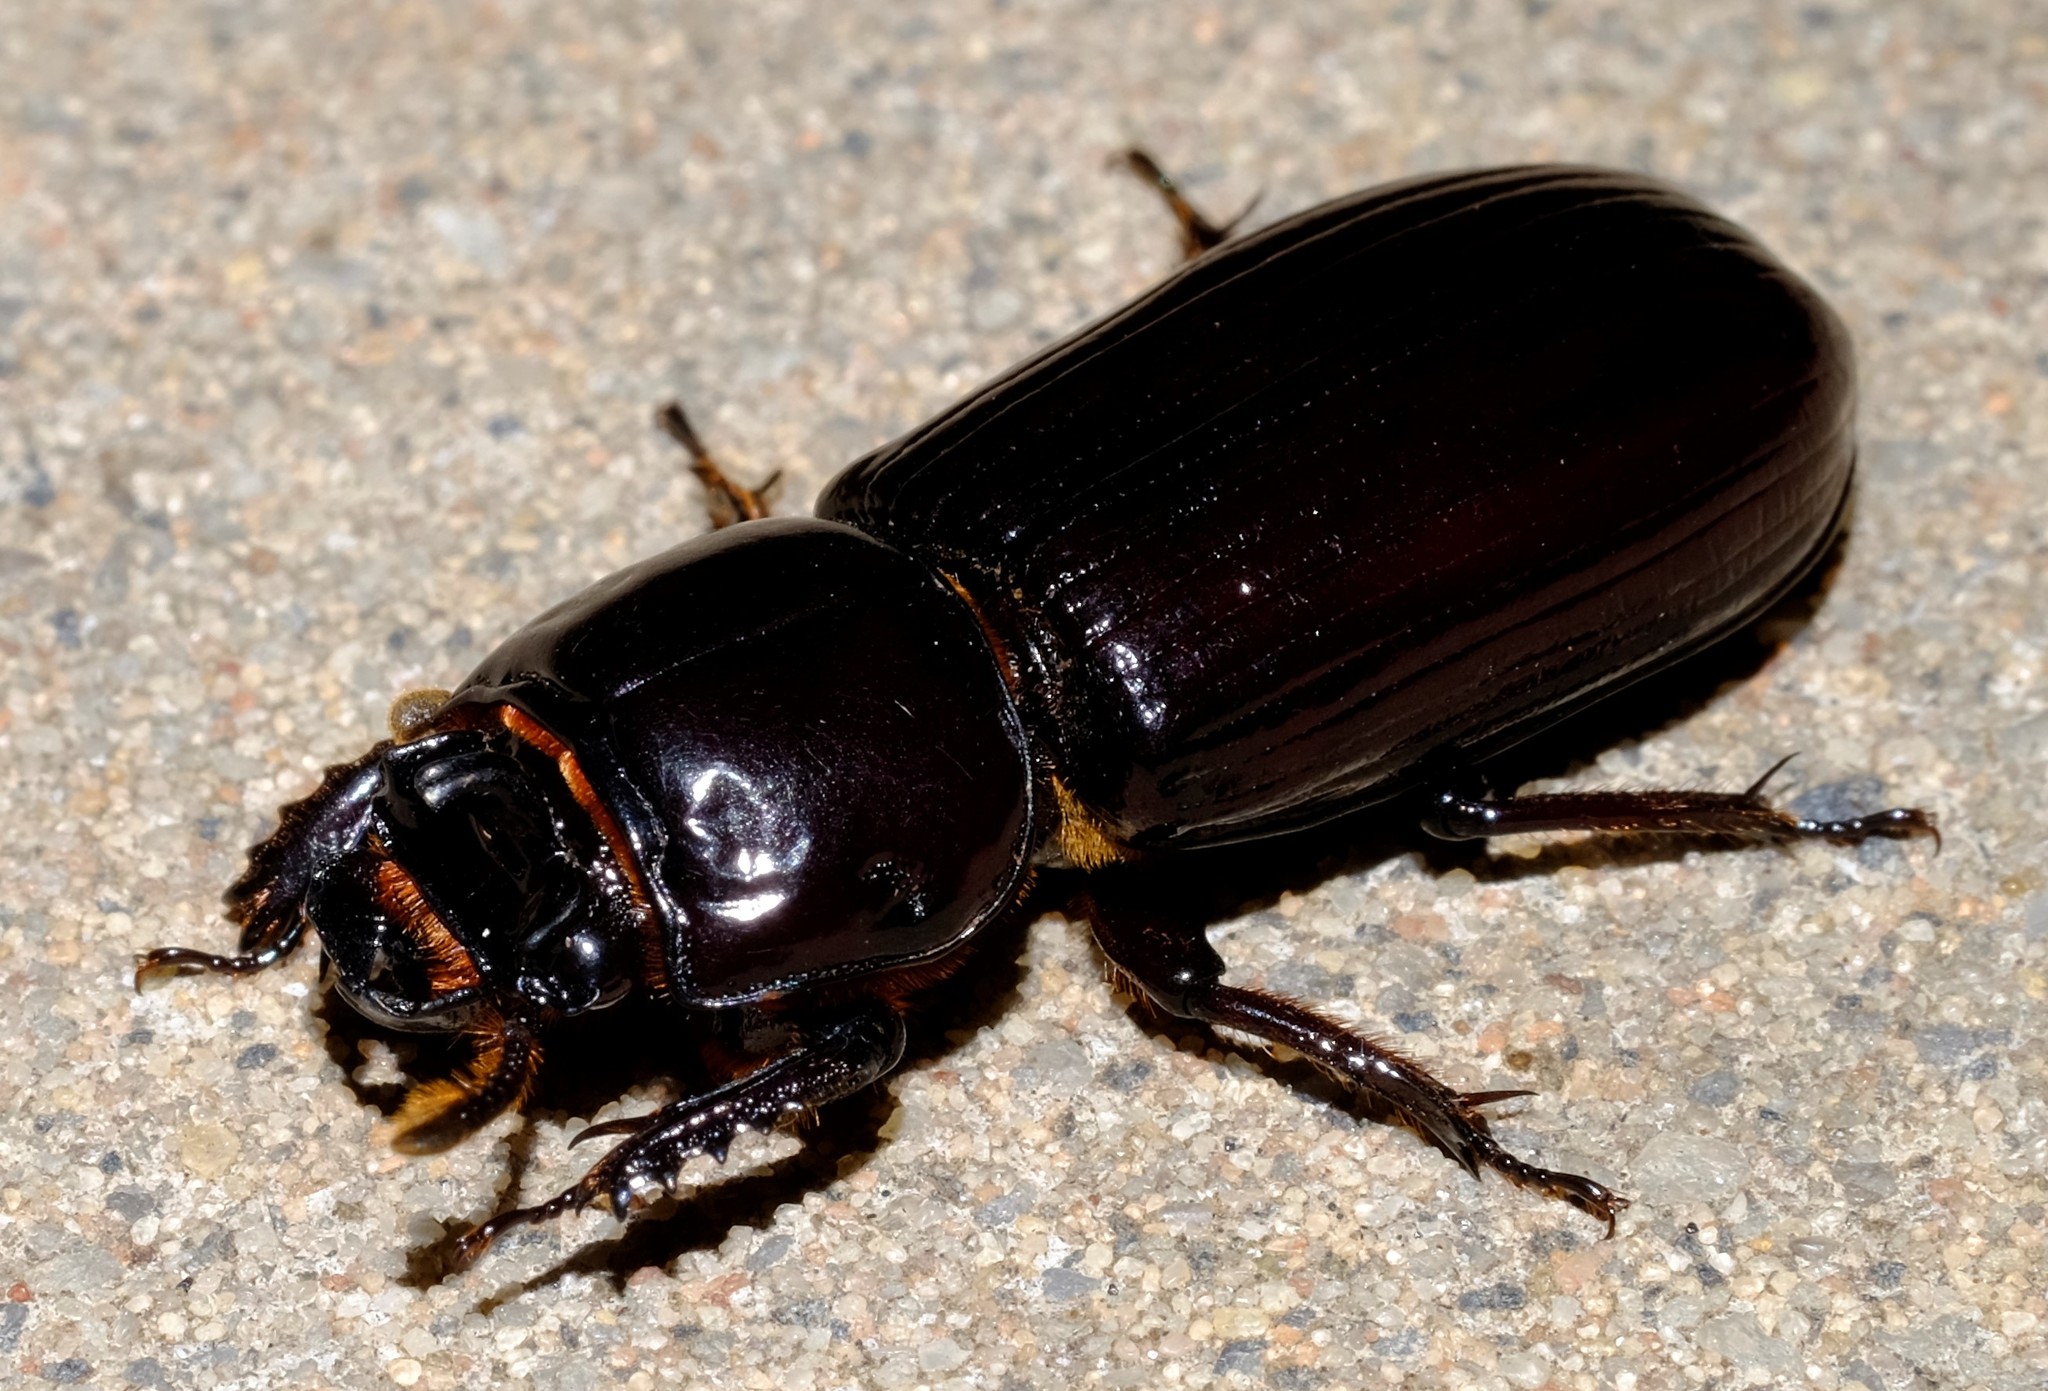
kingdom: Animalia
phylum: Arthropoda
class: Insecta
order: Coleoptera
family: Passalidae
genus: Aulacocyclus
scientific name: Aulacocyclus edentulus
